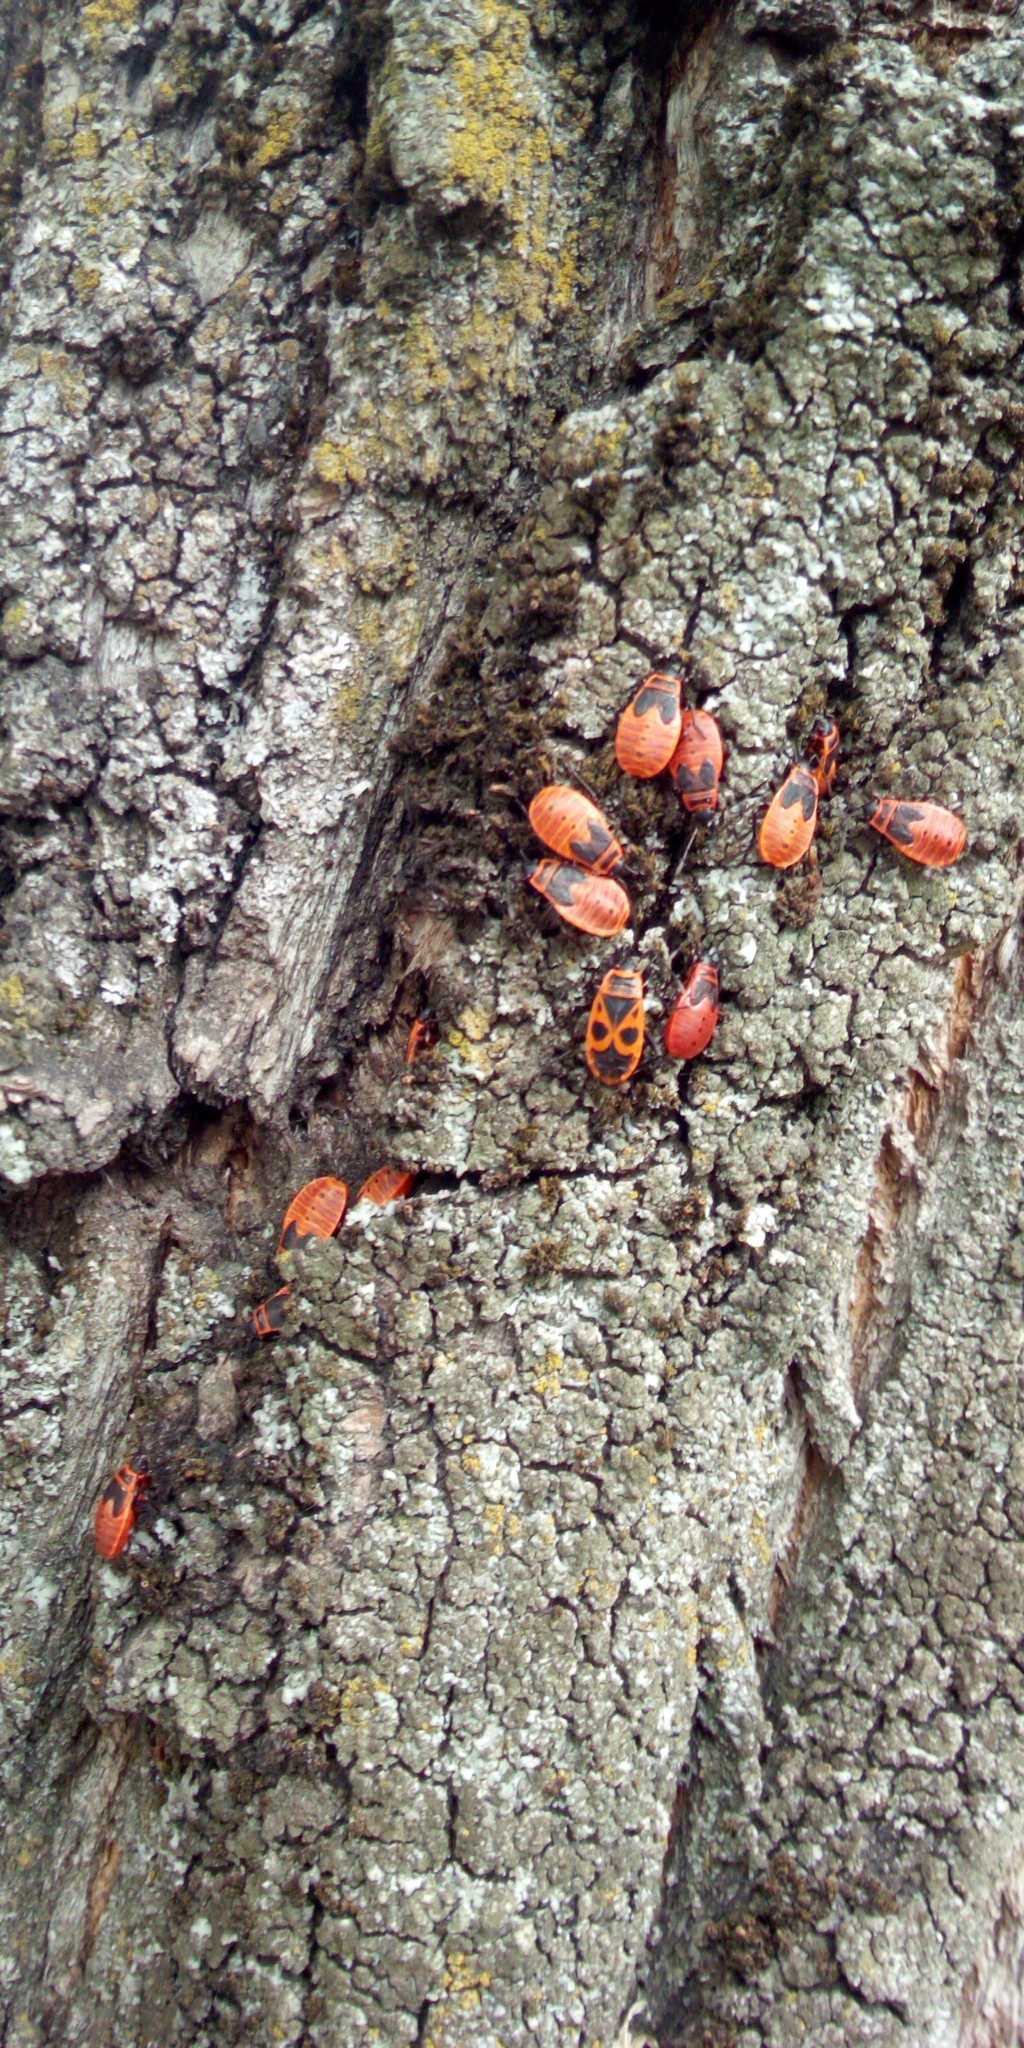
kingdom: Animalia
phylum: Arthropoda
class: Insecta
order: Hemiptera
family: Pyrrhocoridae
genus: Pyrrhocoris
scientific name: Pyrrhocoris apterus
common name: Firebug
